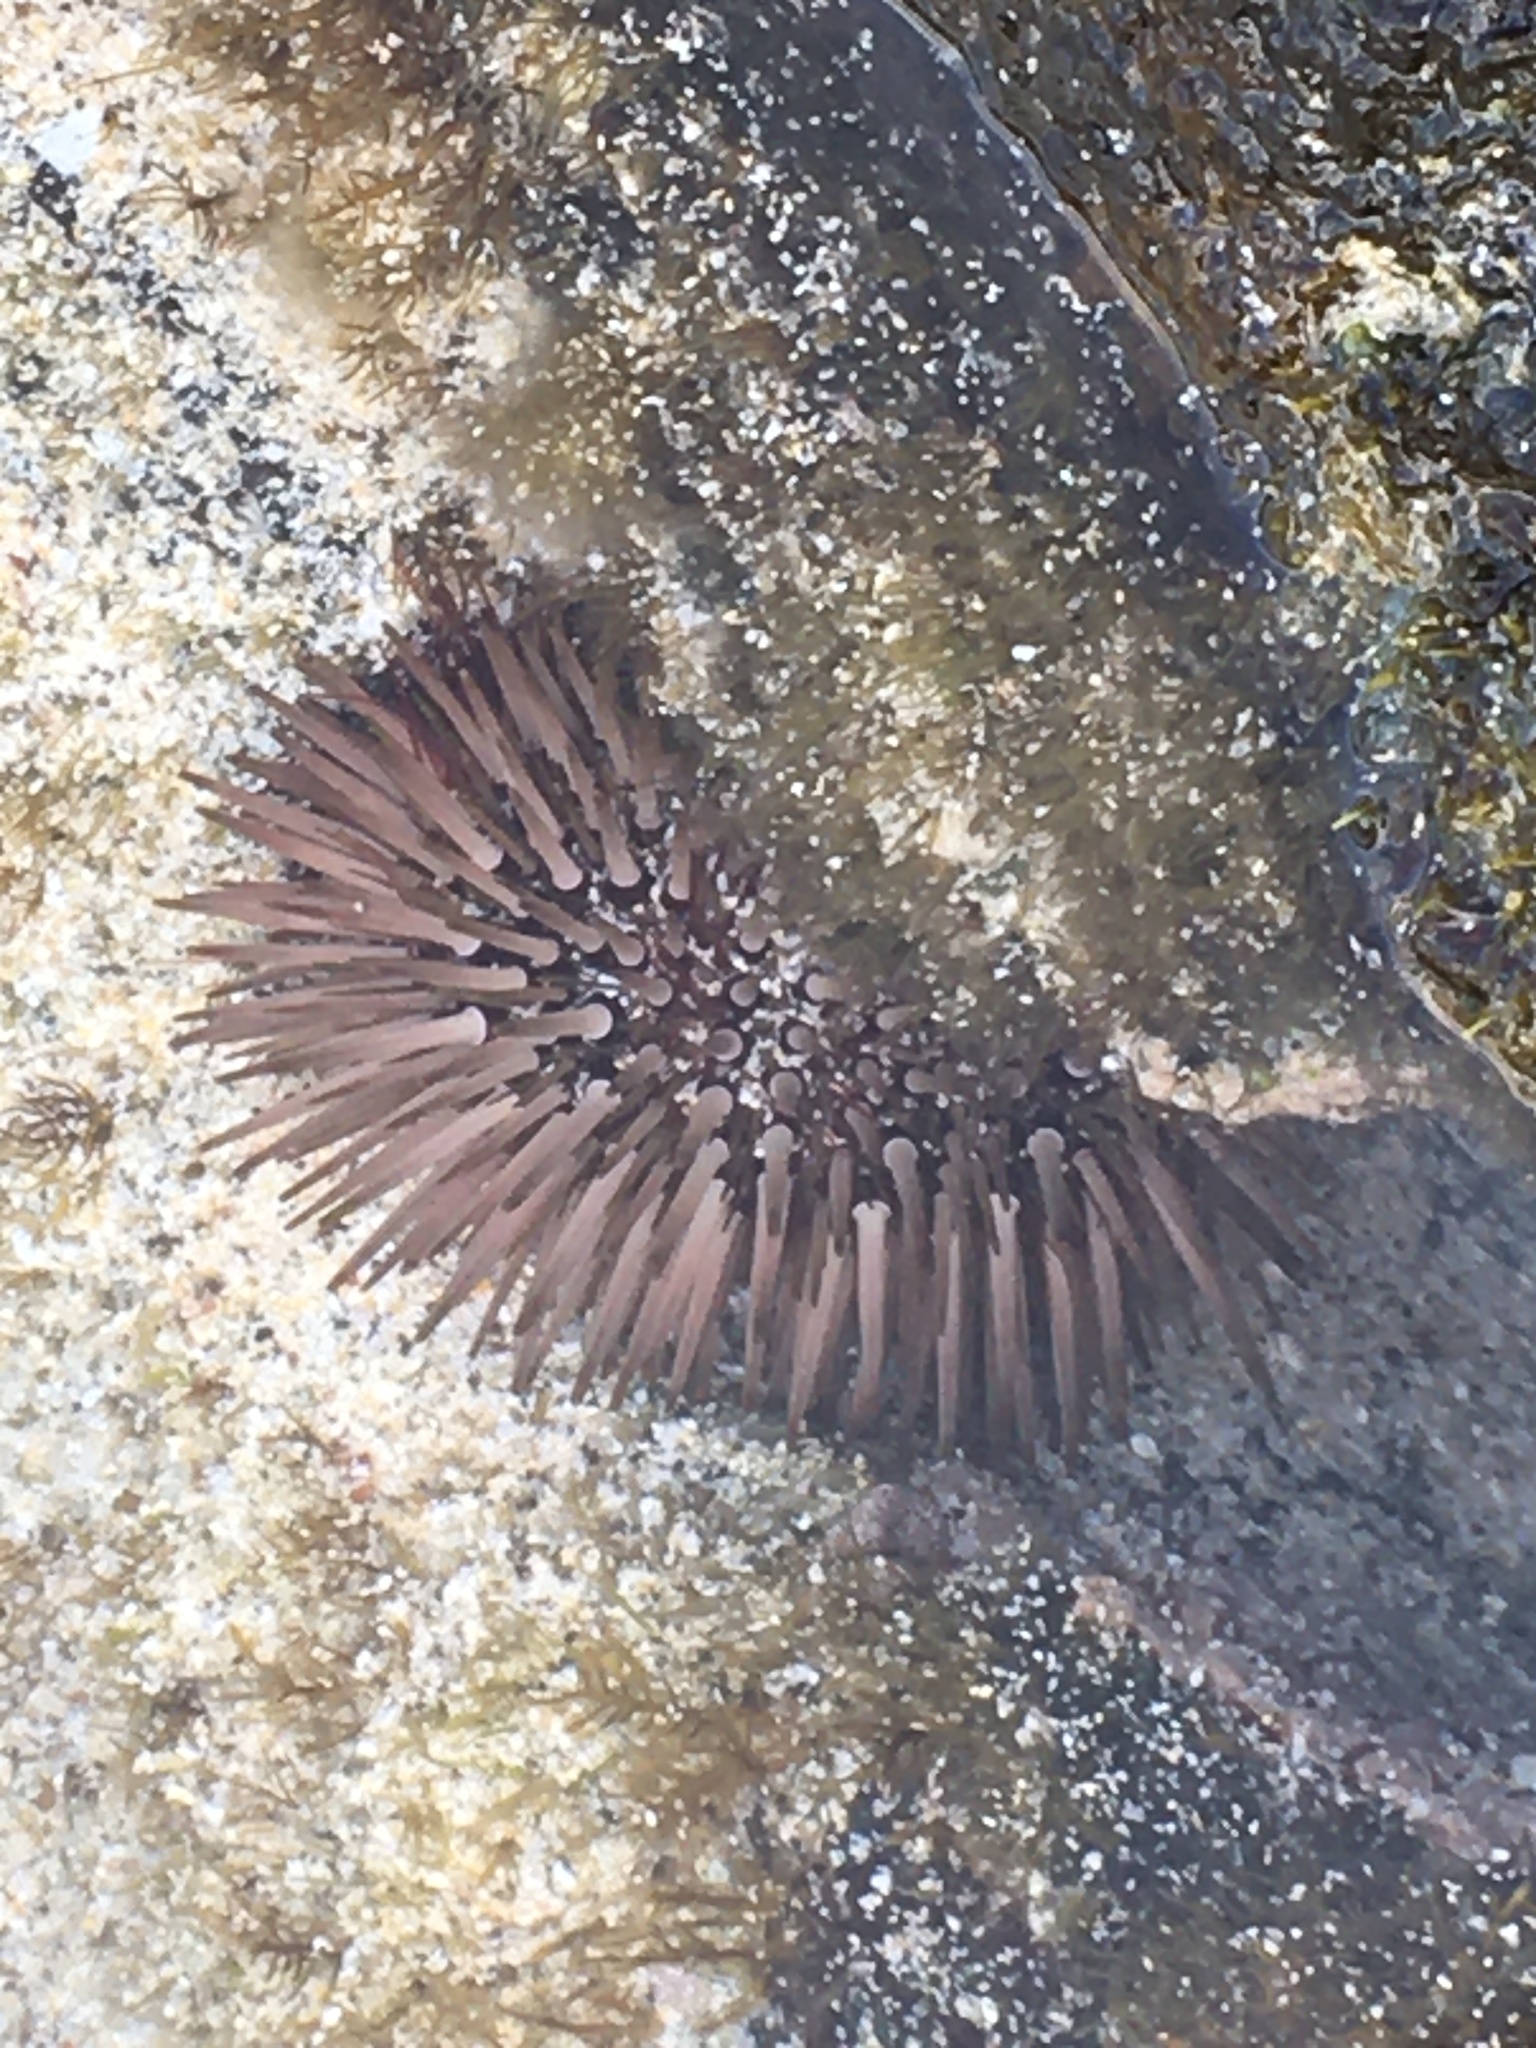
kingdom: Animalia
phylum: Echinodermata
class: Echinoidea
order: Camarodonta
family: Echinometridae
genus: Echinometra
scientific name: Echinometra mathaei
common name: Rock-boring urchin
